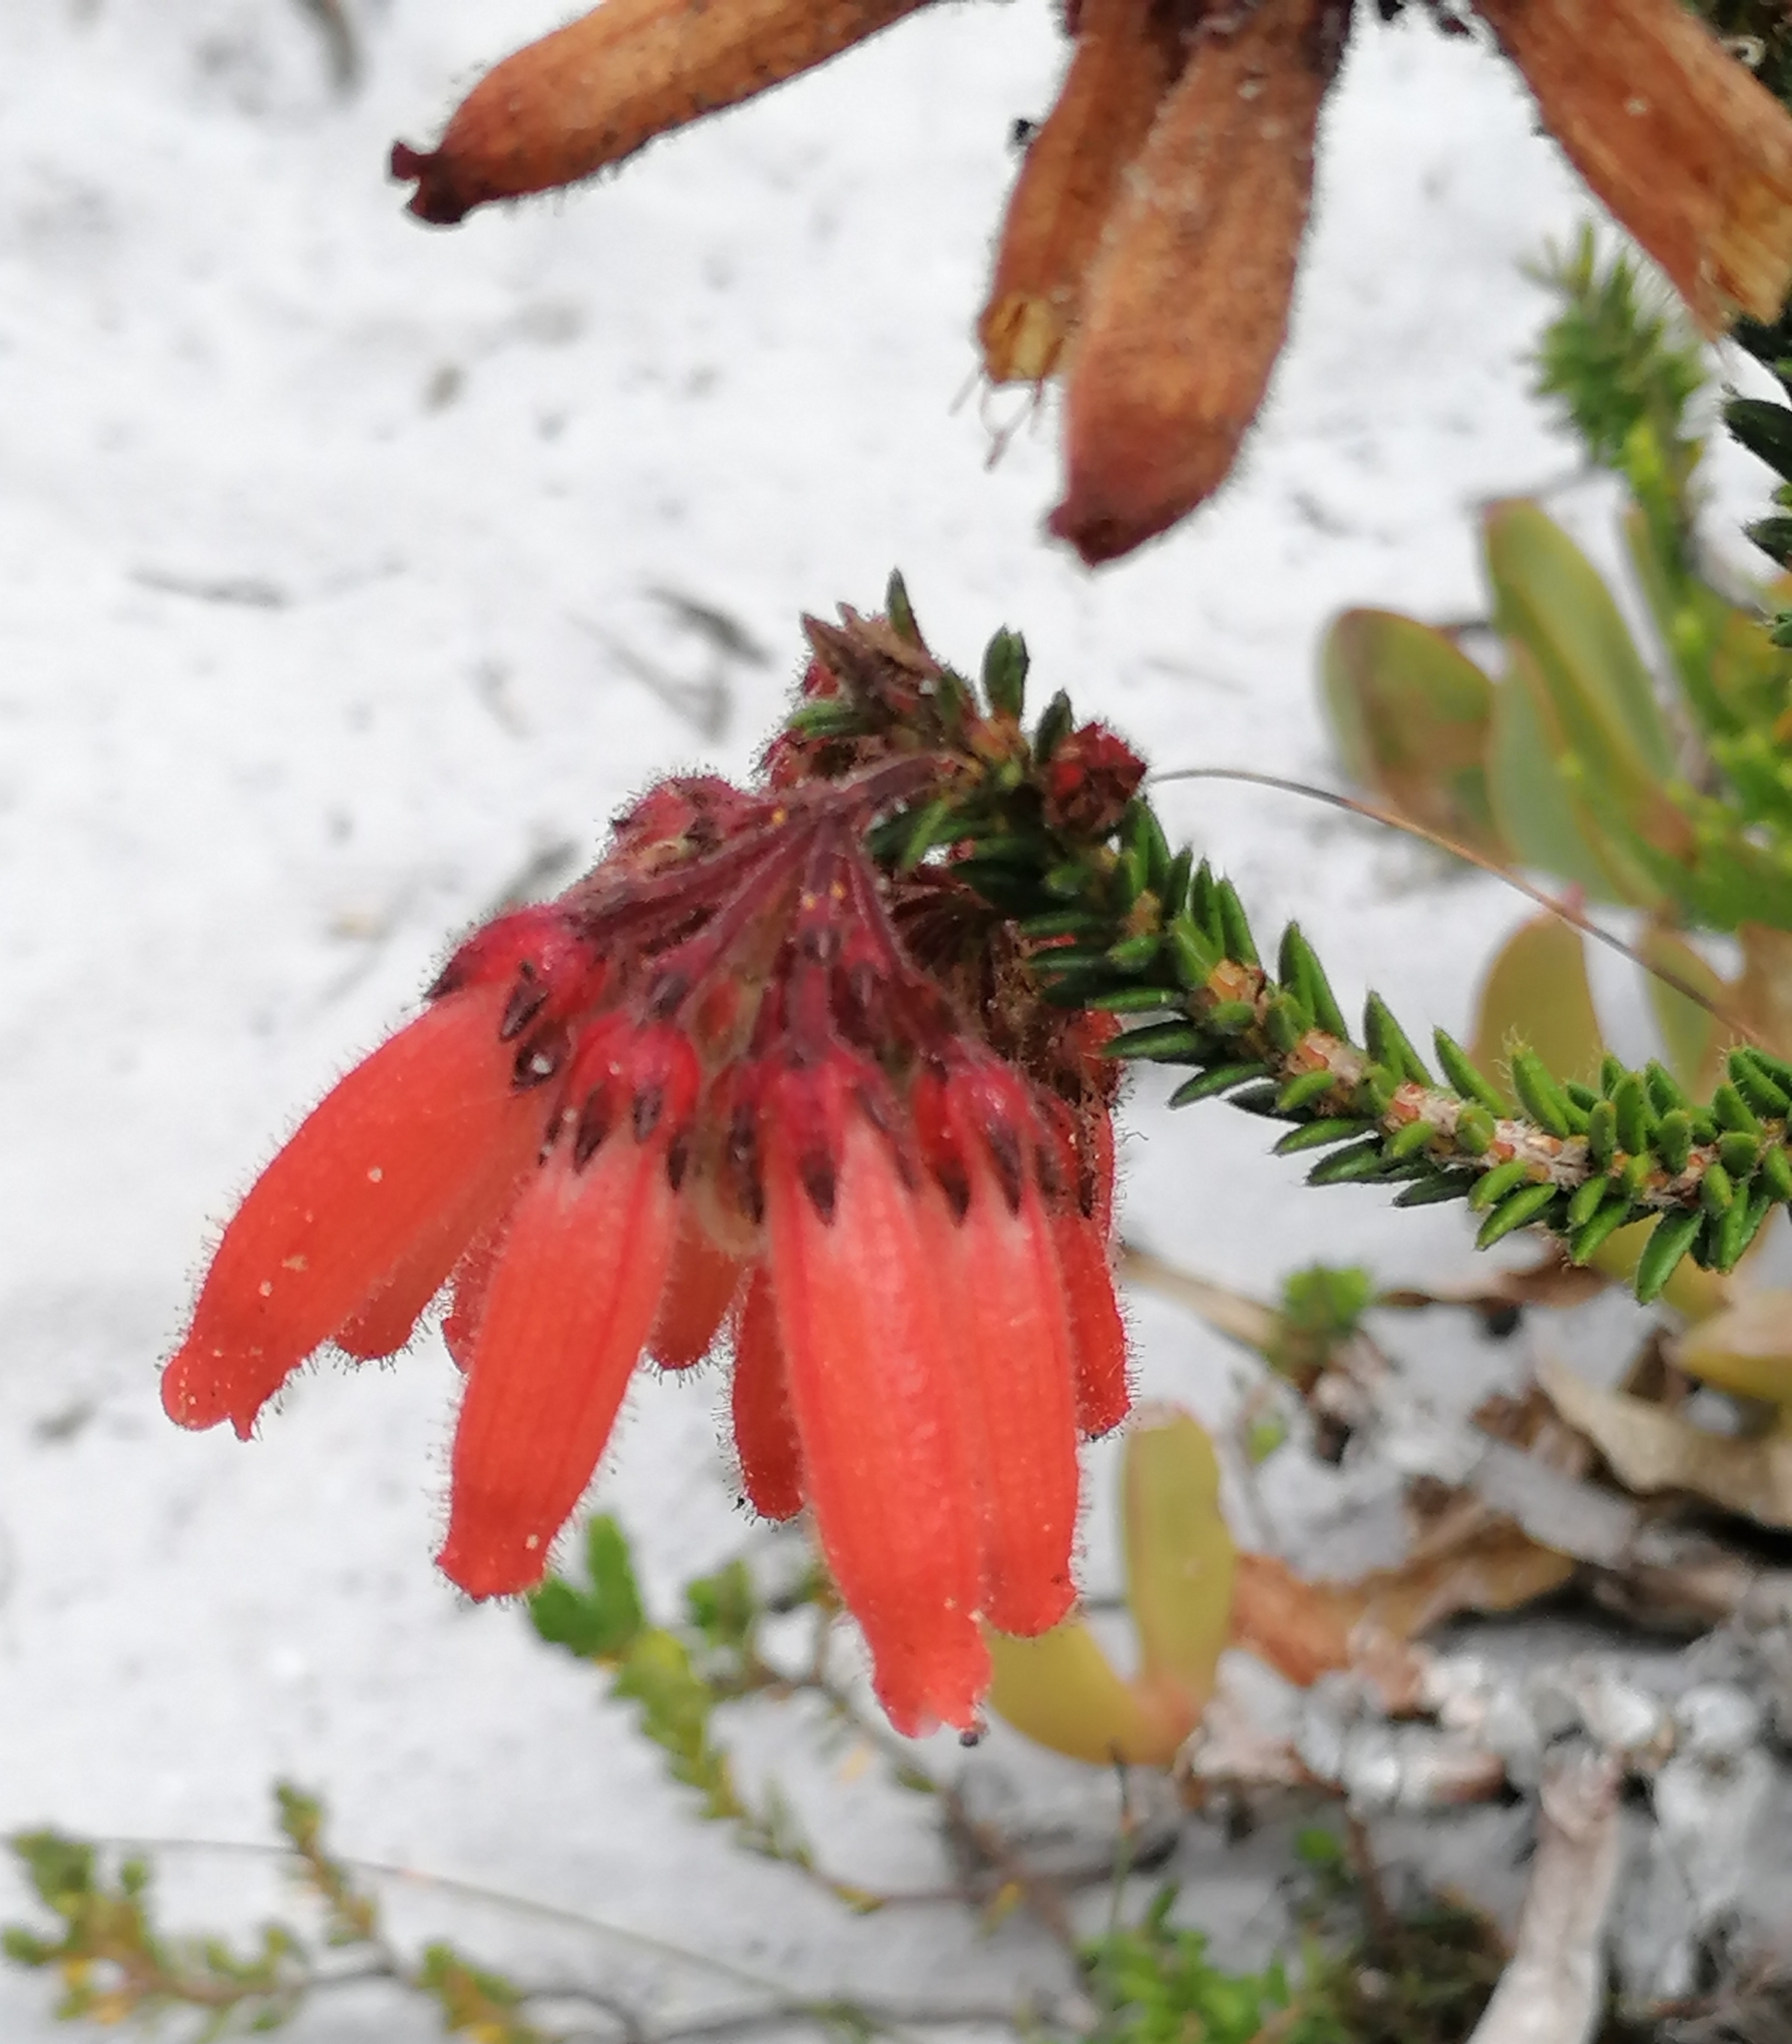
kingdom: Plantae
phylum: Tracheophyta
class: Magnoliopsida
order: Ericales
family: Ericaceae
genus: Erica
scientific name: Erica cerinthoides
